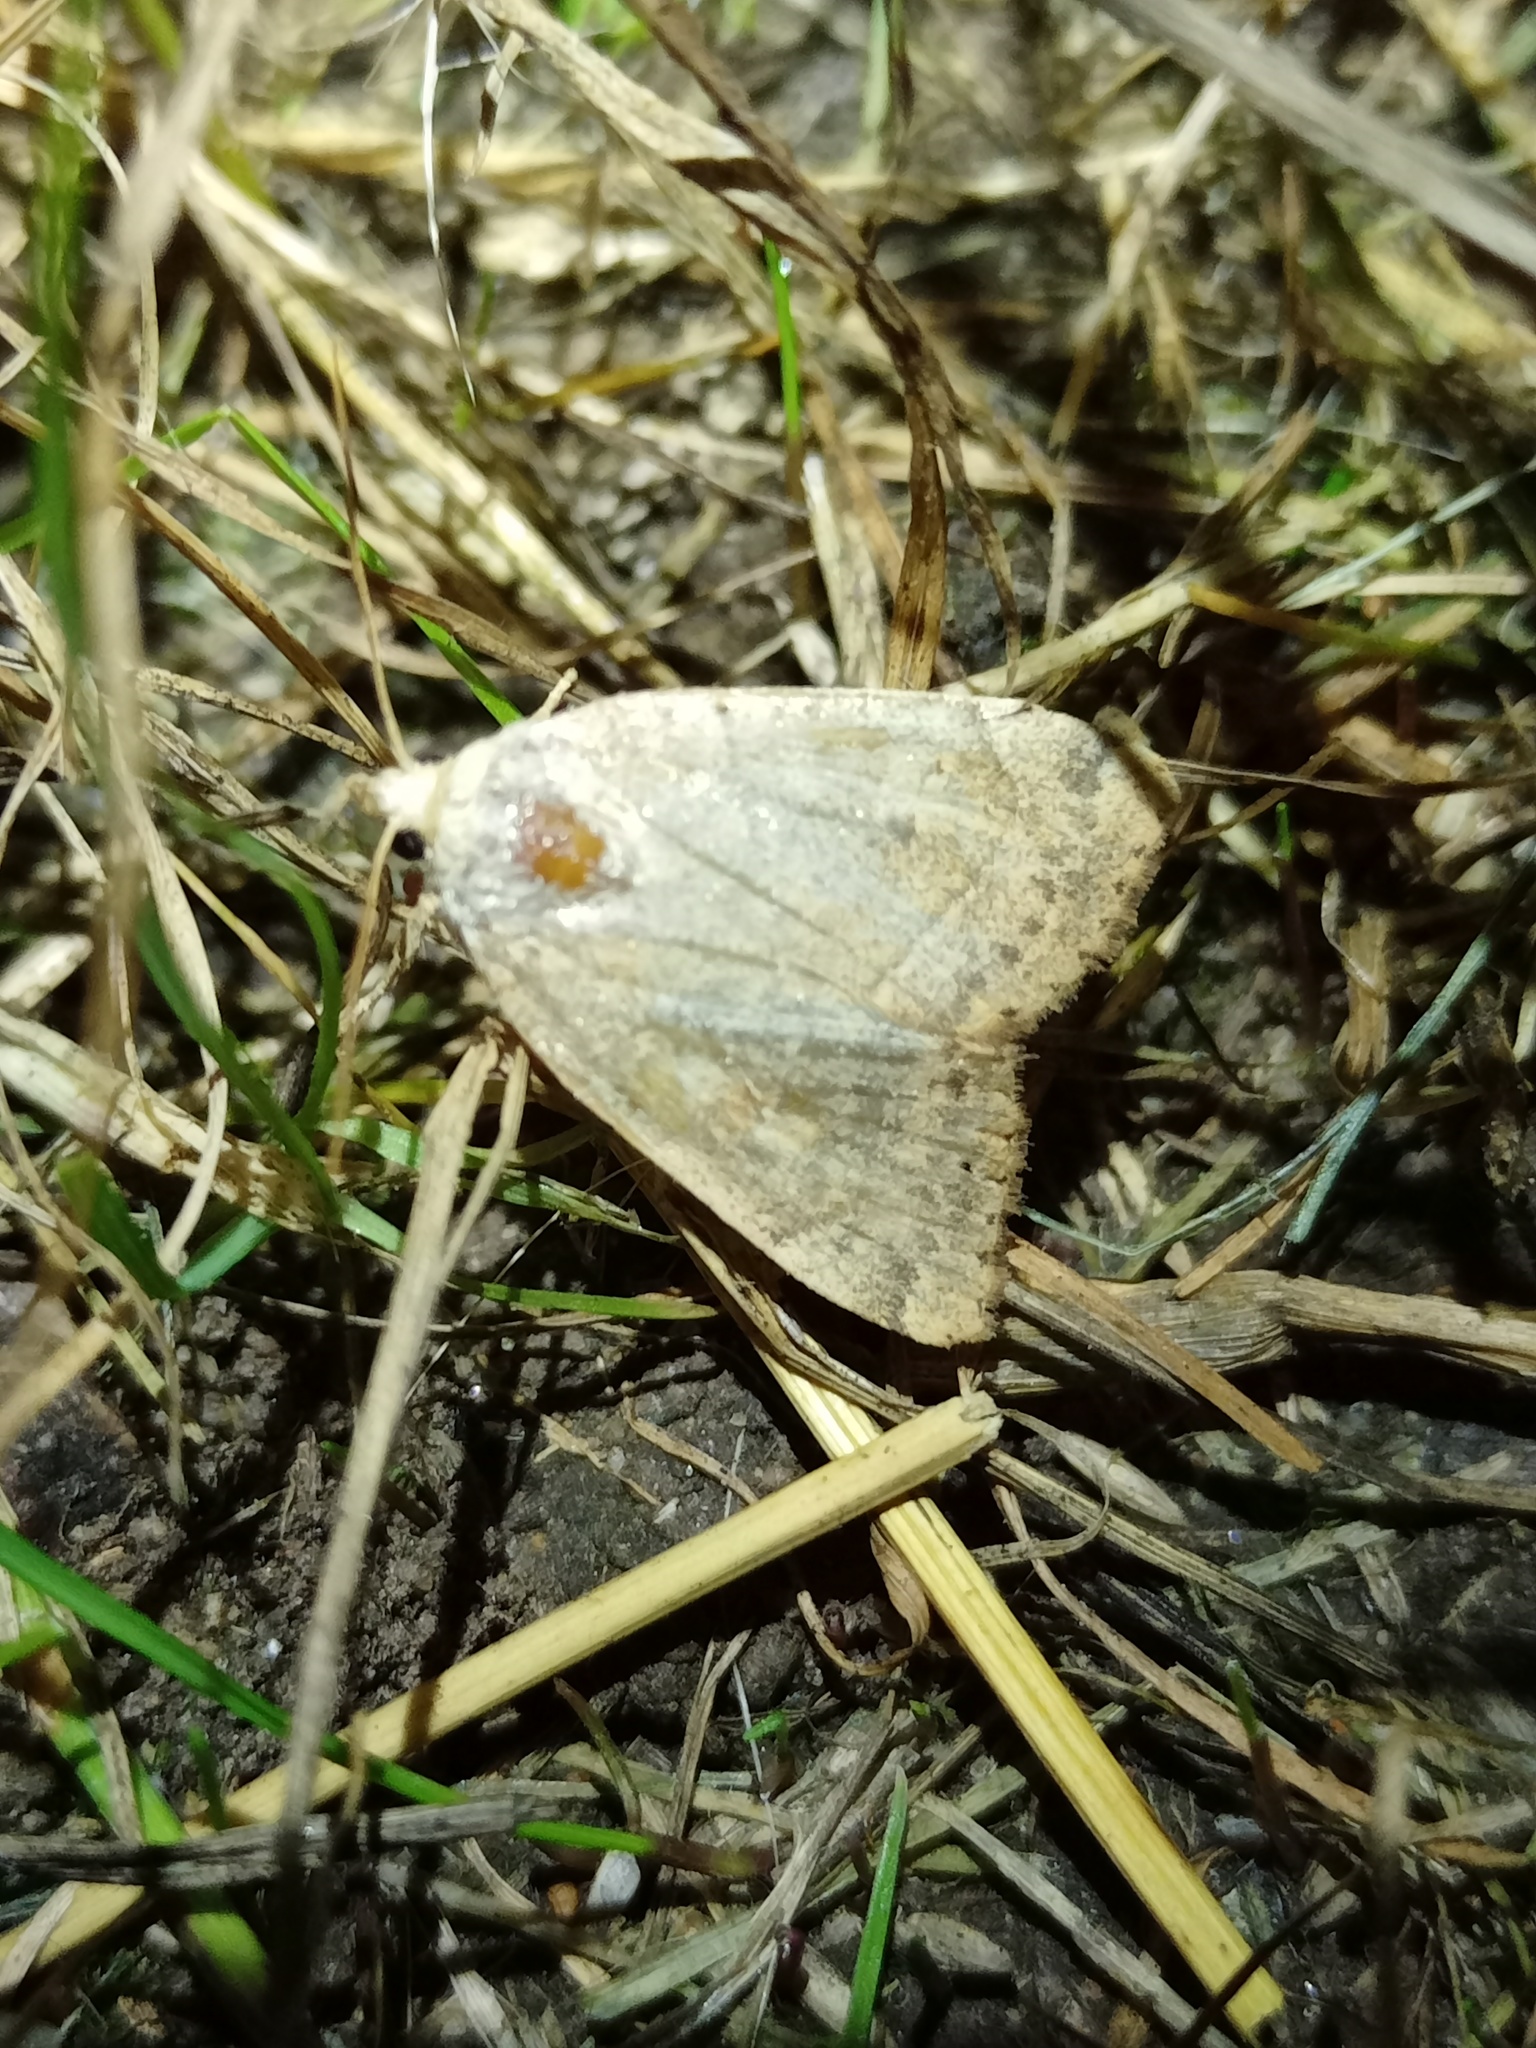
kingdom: Animalia
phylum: Arthropoda
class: Insecta
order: Lepidoptera
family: Noctuidae
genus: Cosmia
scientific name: Cosmia trapezina
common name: Dun-bar
